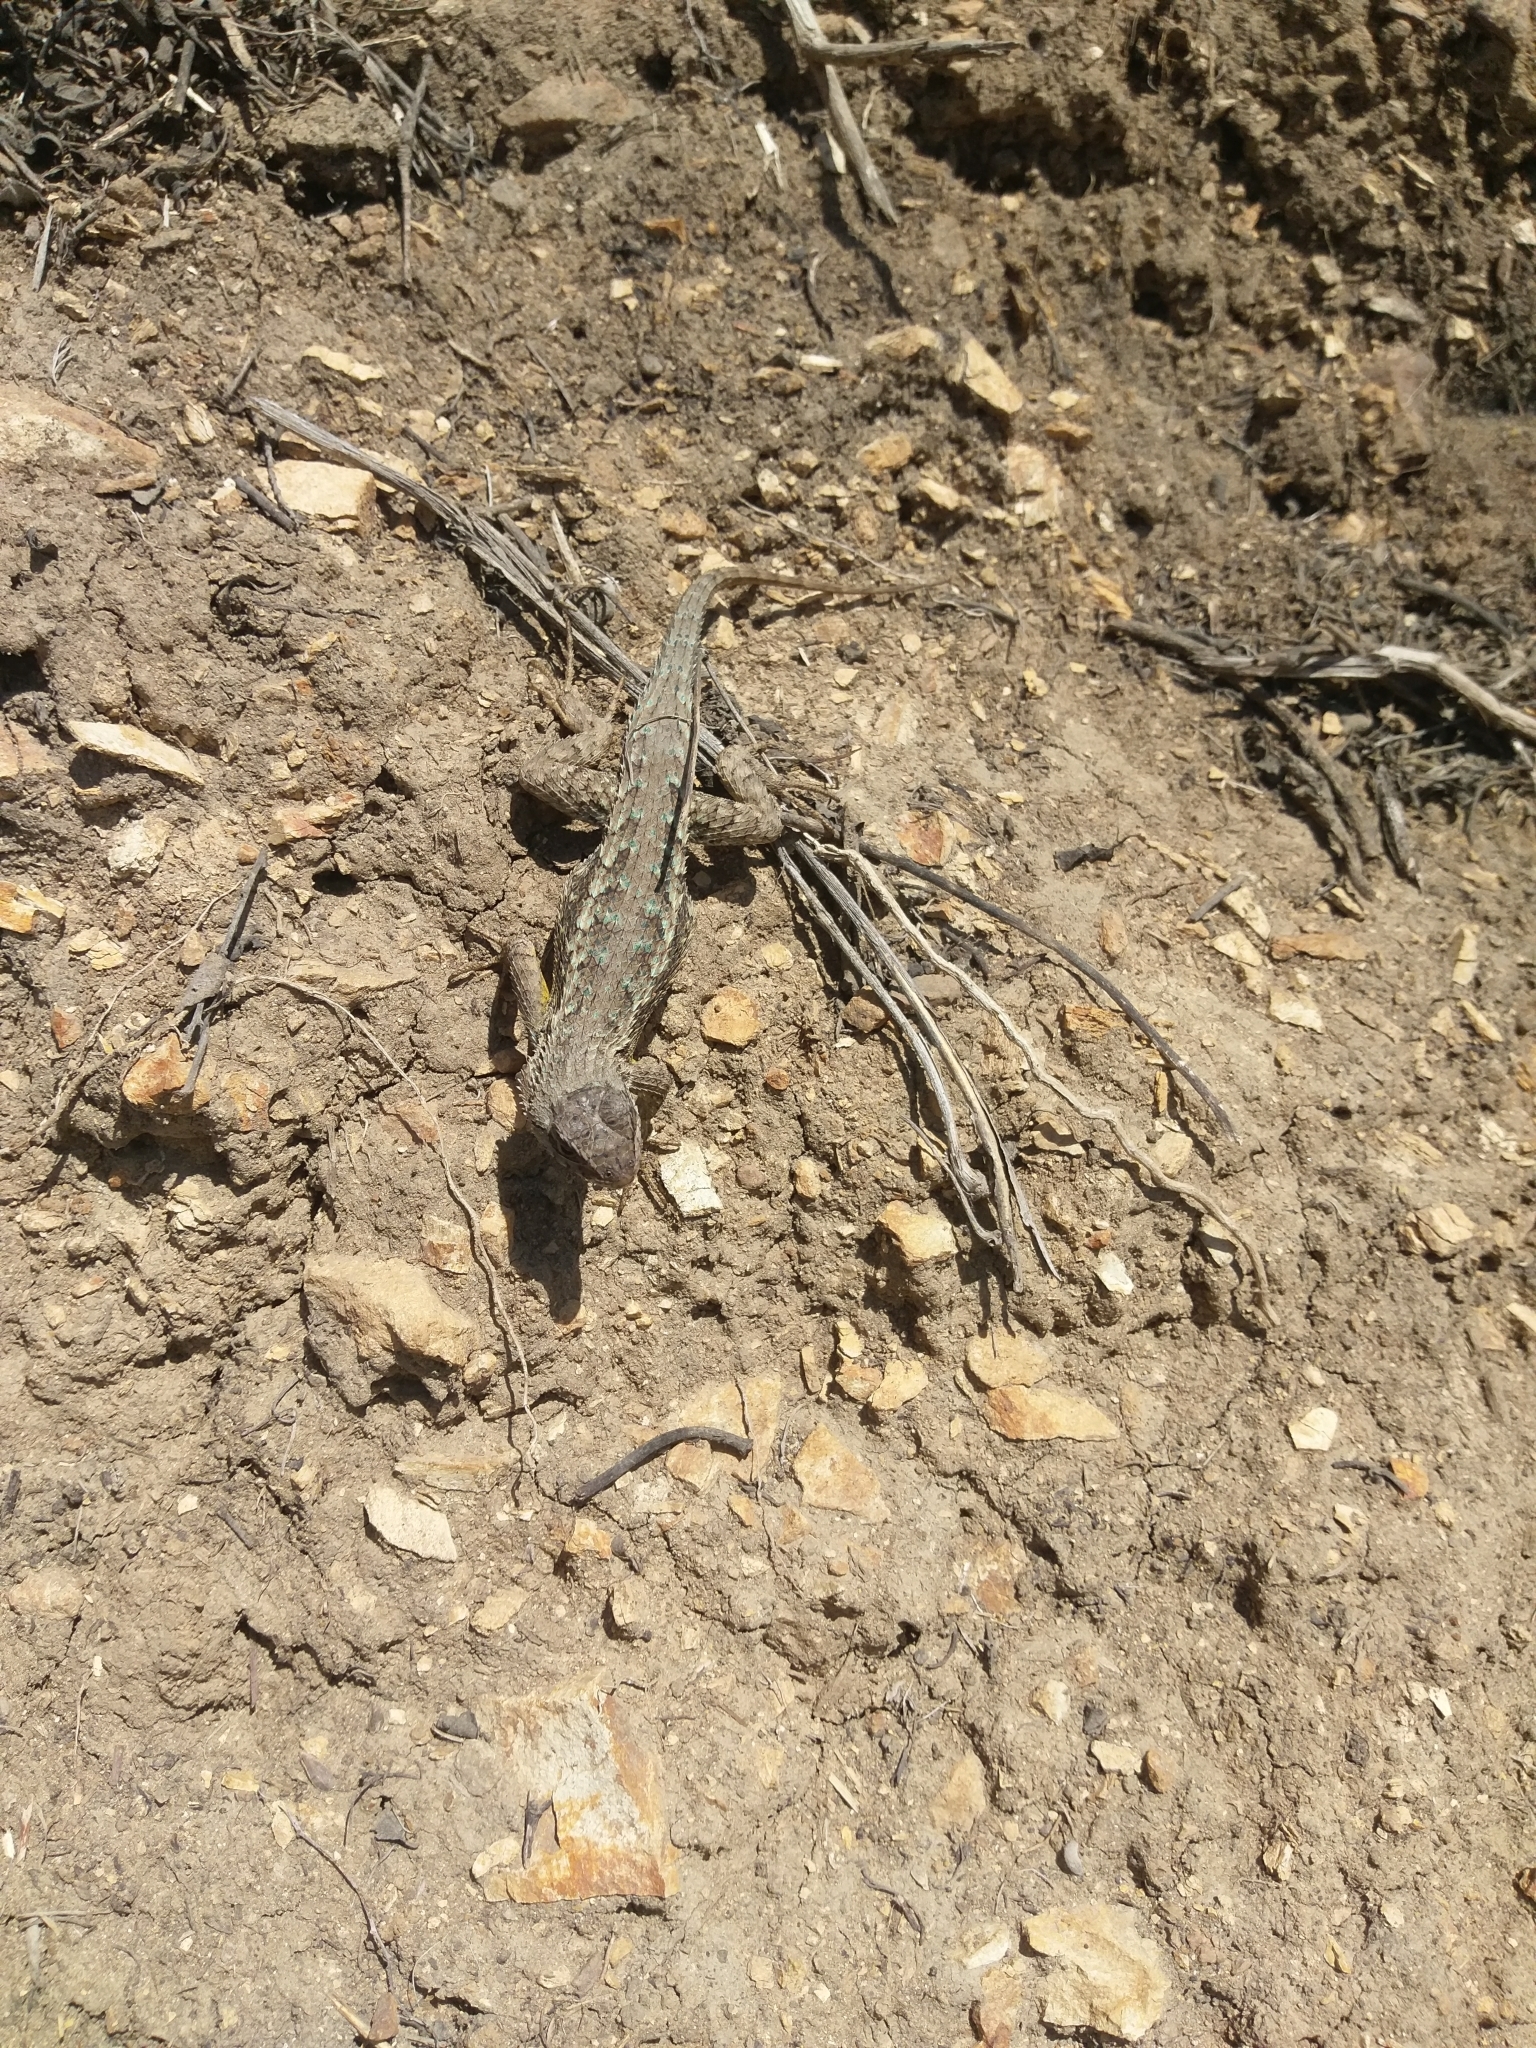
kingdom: Animalia
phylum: Chordata
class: Squamata
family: Phrynosomatidae
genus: Sceloporus
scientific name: Sceloporus occidentalis
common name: Western fence lizard
